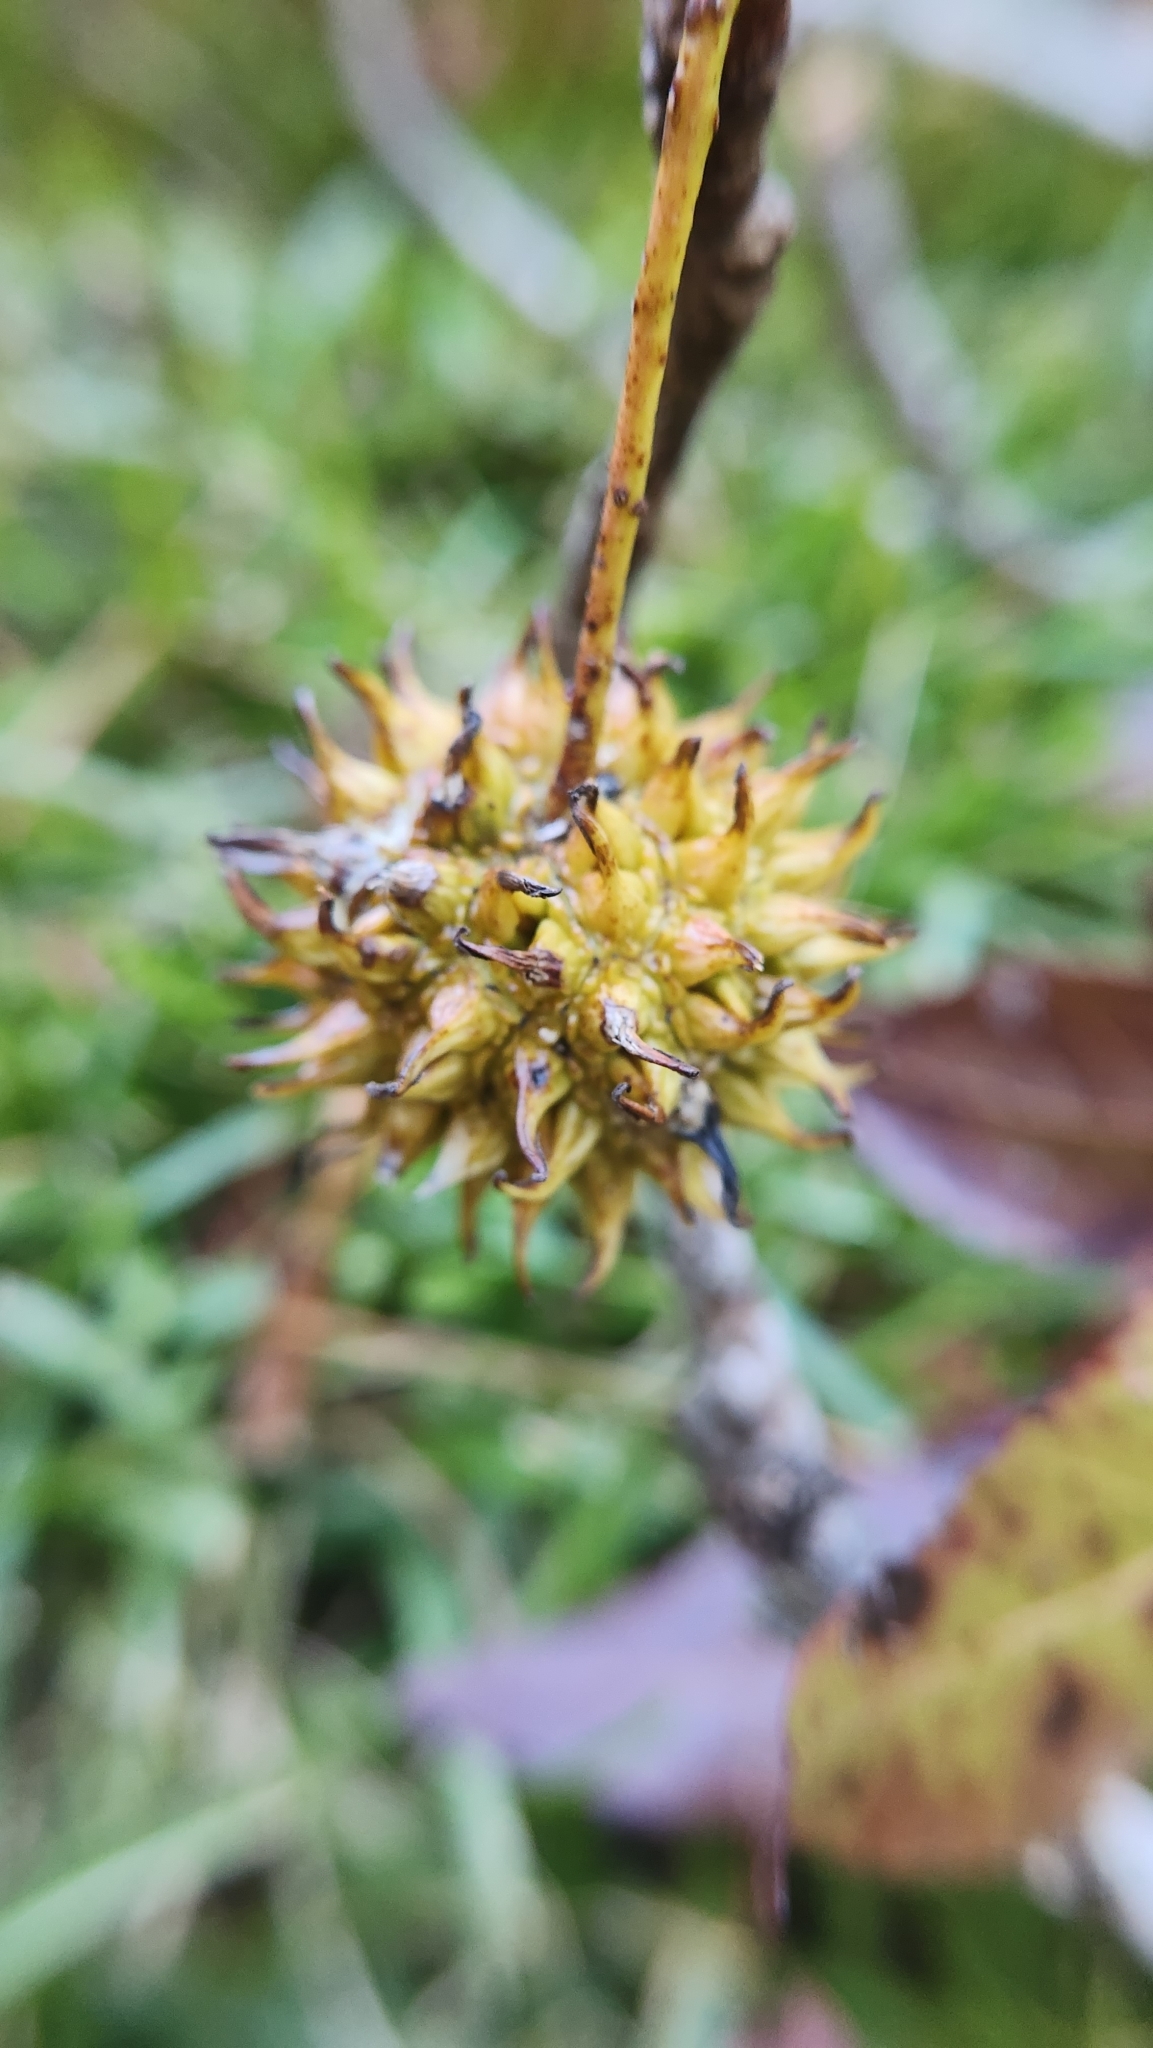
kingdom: Plantae
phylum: Tracheophyta
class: Magnoliopsida
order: Saxifragales
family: Altingiaceae
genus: Liquidambar
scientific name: Liquidambar styraciflua
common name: Sweet gum
